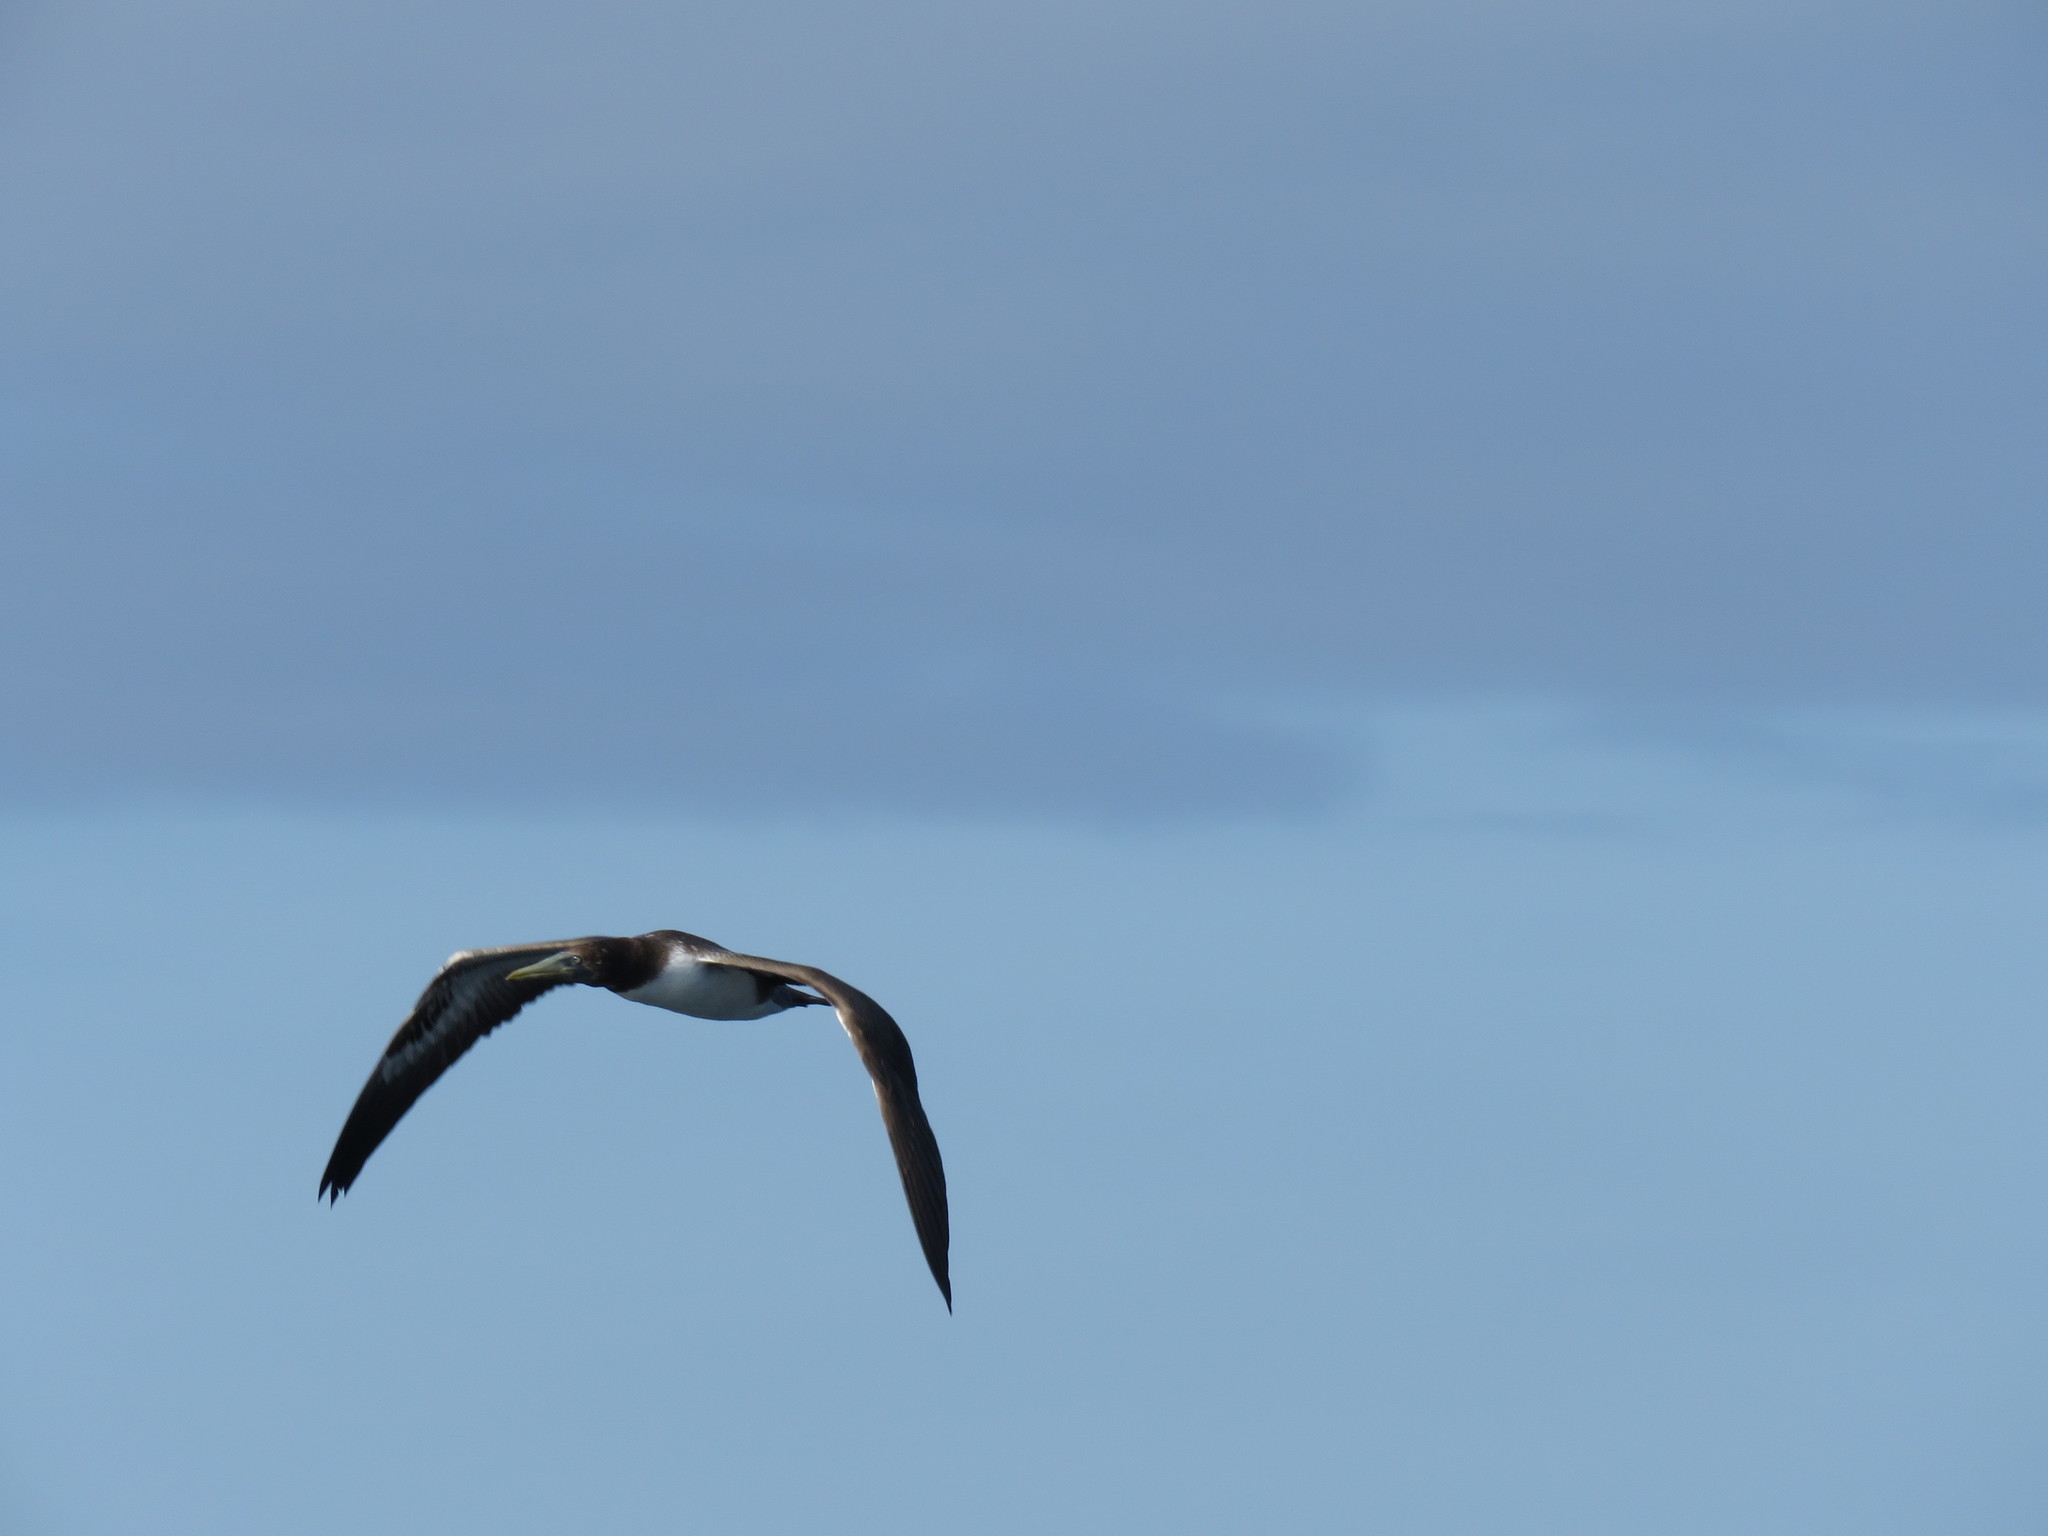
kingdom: Animalia
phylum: Chordata
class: Aves
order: Suliformes
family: Sulidae
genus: Sula
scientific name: Sula granti
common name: Nazca booby
